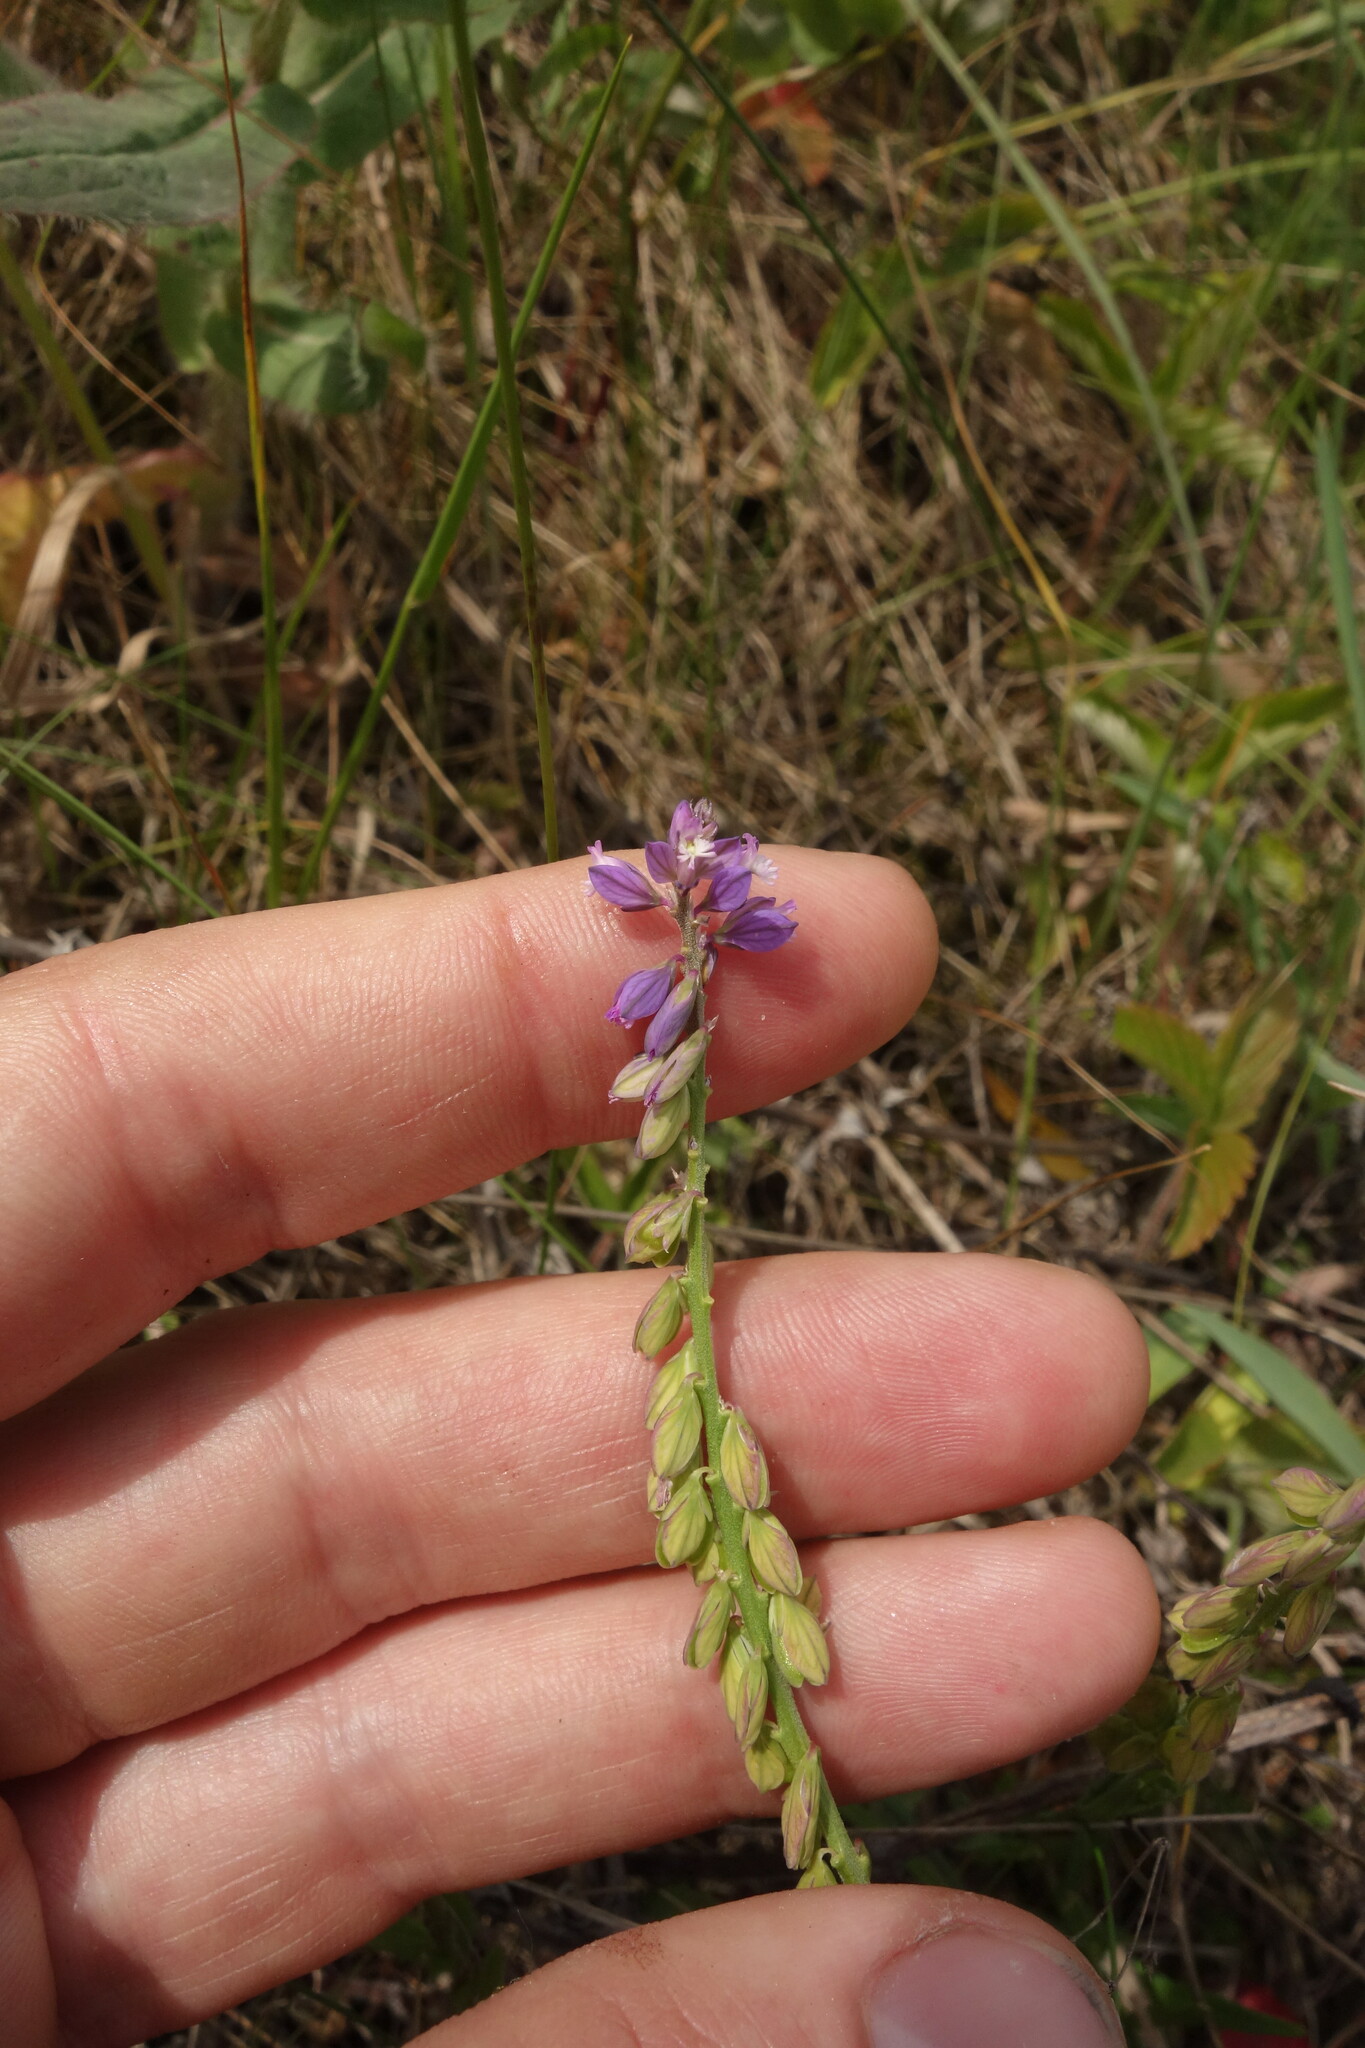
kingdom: Plantae
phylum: Tracheophyta
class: Magnoliopsida
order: Fabales
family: Polygalaceae
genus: Polygala
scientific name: Polygala comosa
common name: Tufted milkwort
